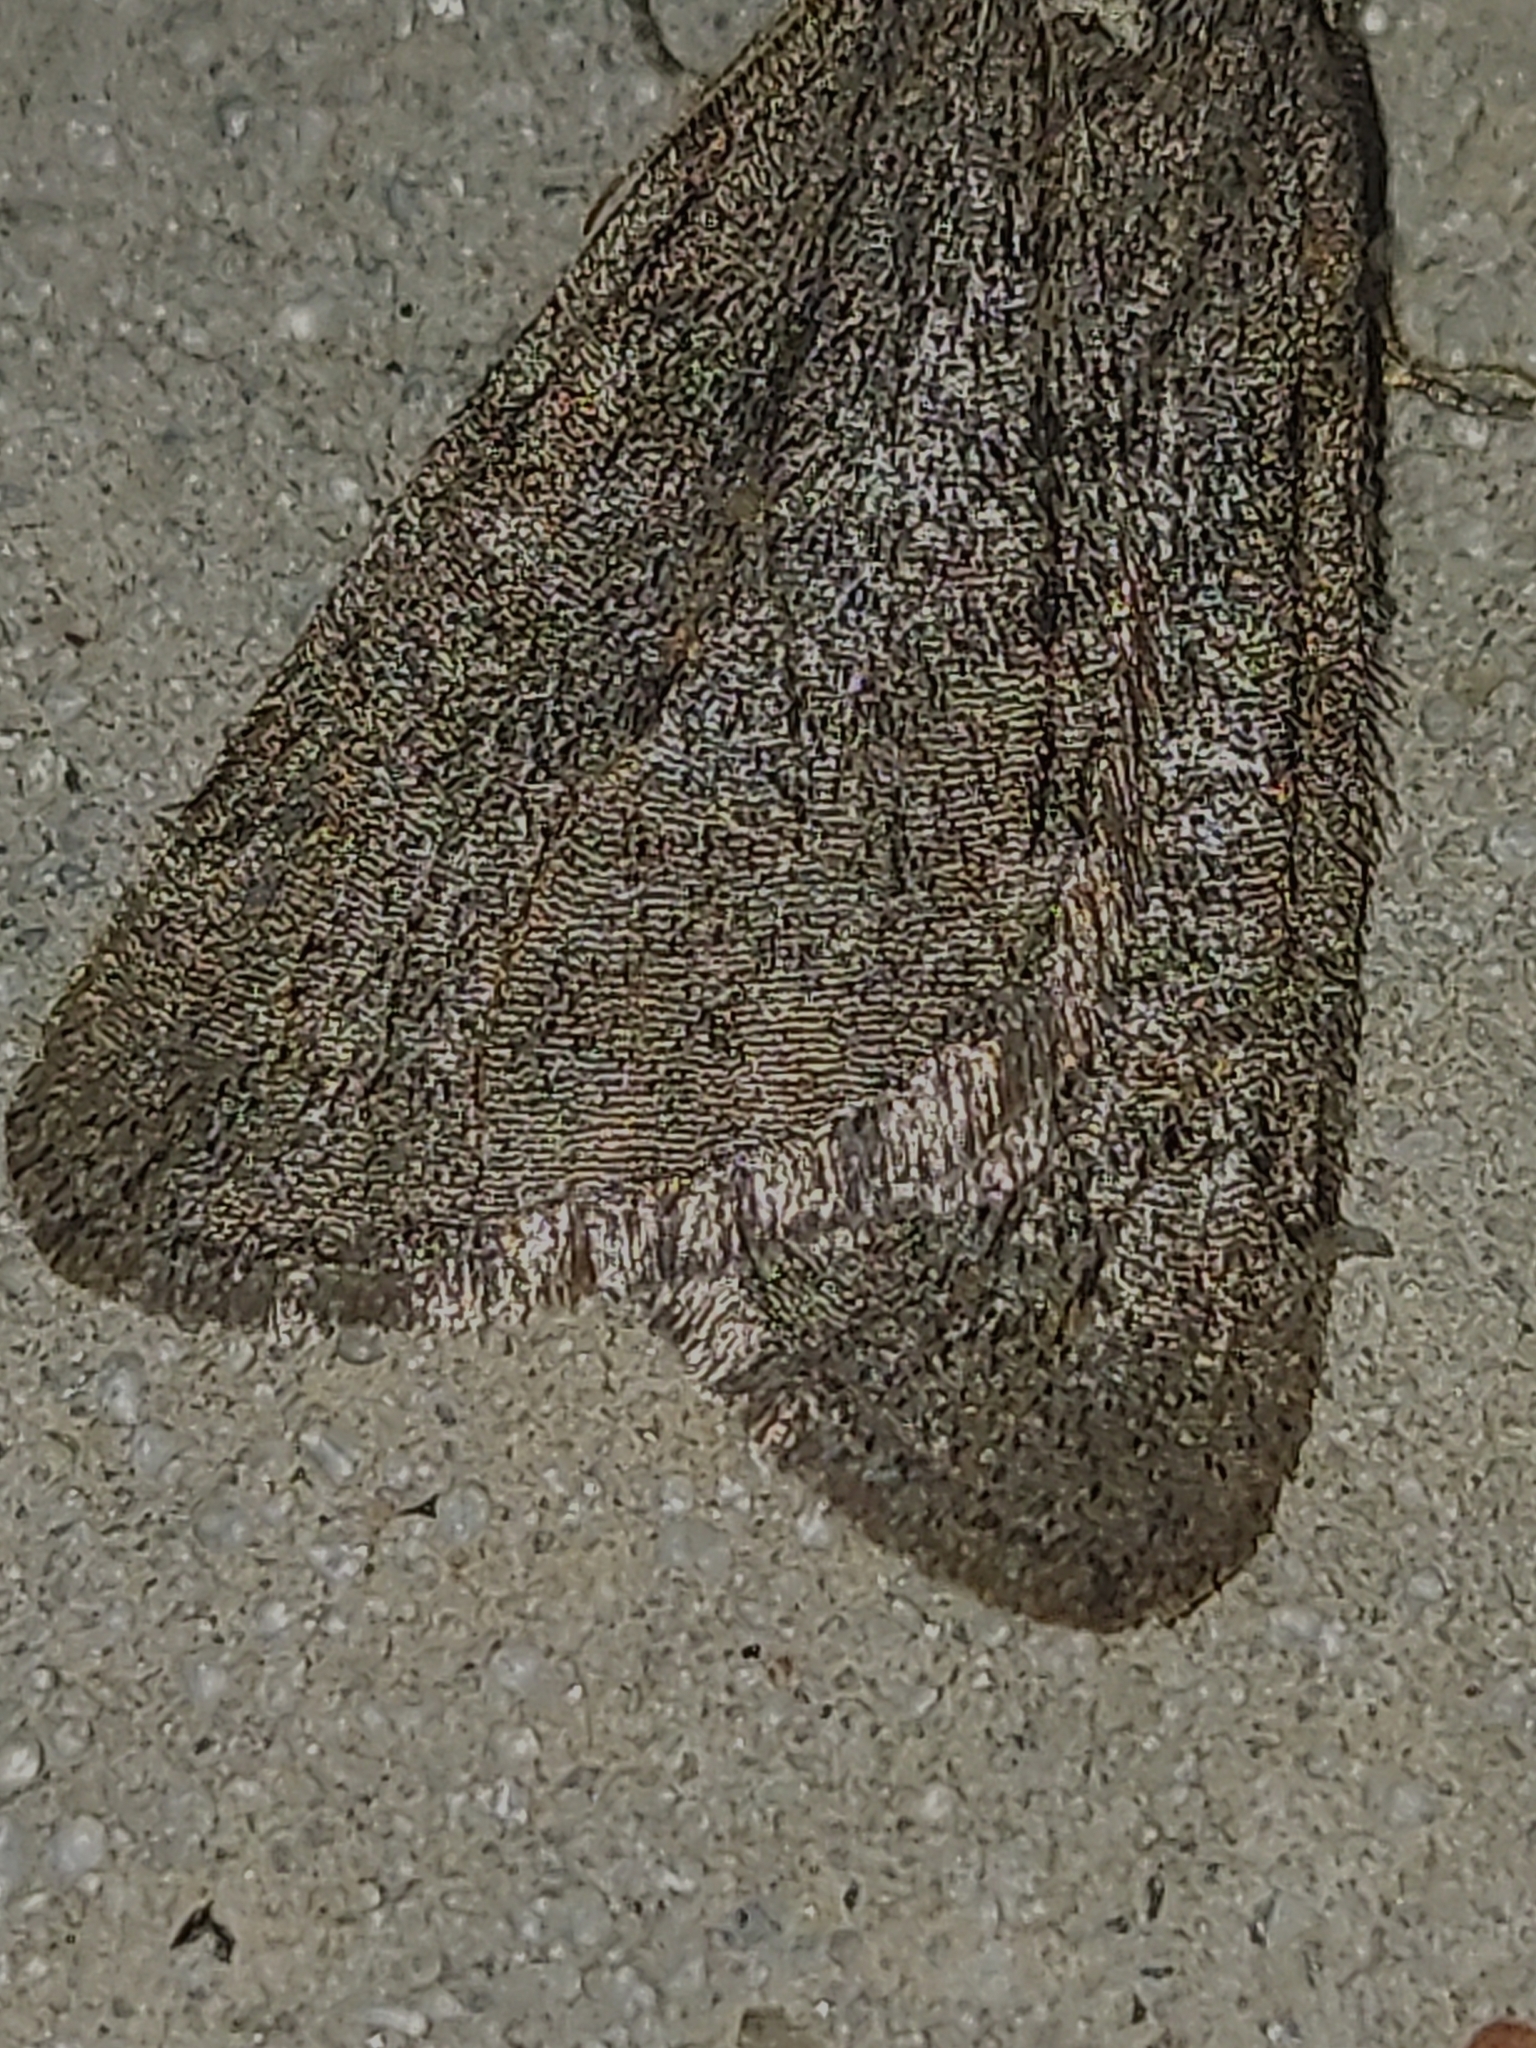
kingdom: Animalia
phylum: Arthropoda
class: Insecta
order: Lepidoptera
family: Geometridae
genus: Paleacrita
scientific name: Paleacrita vernata
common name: Spring cankerworm
